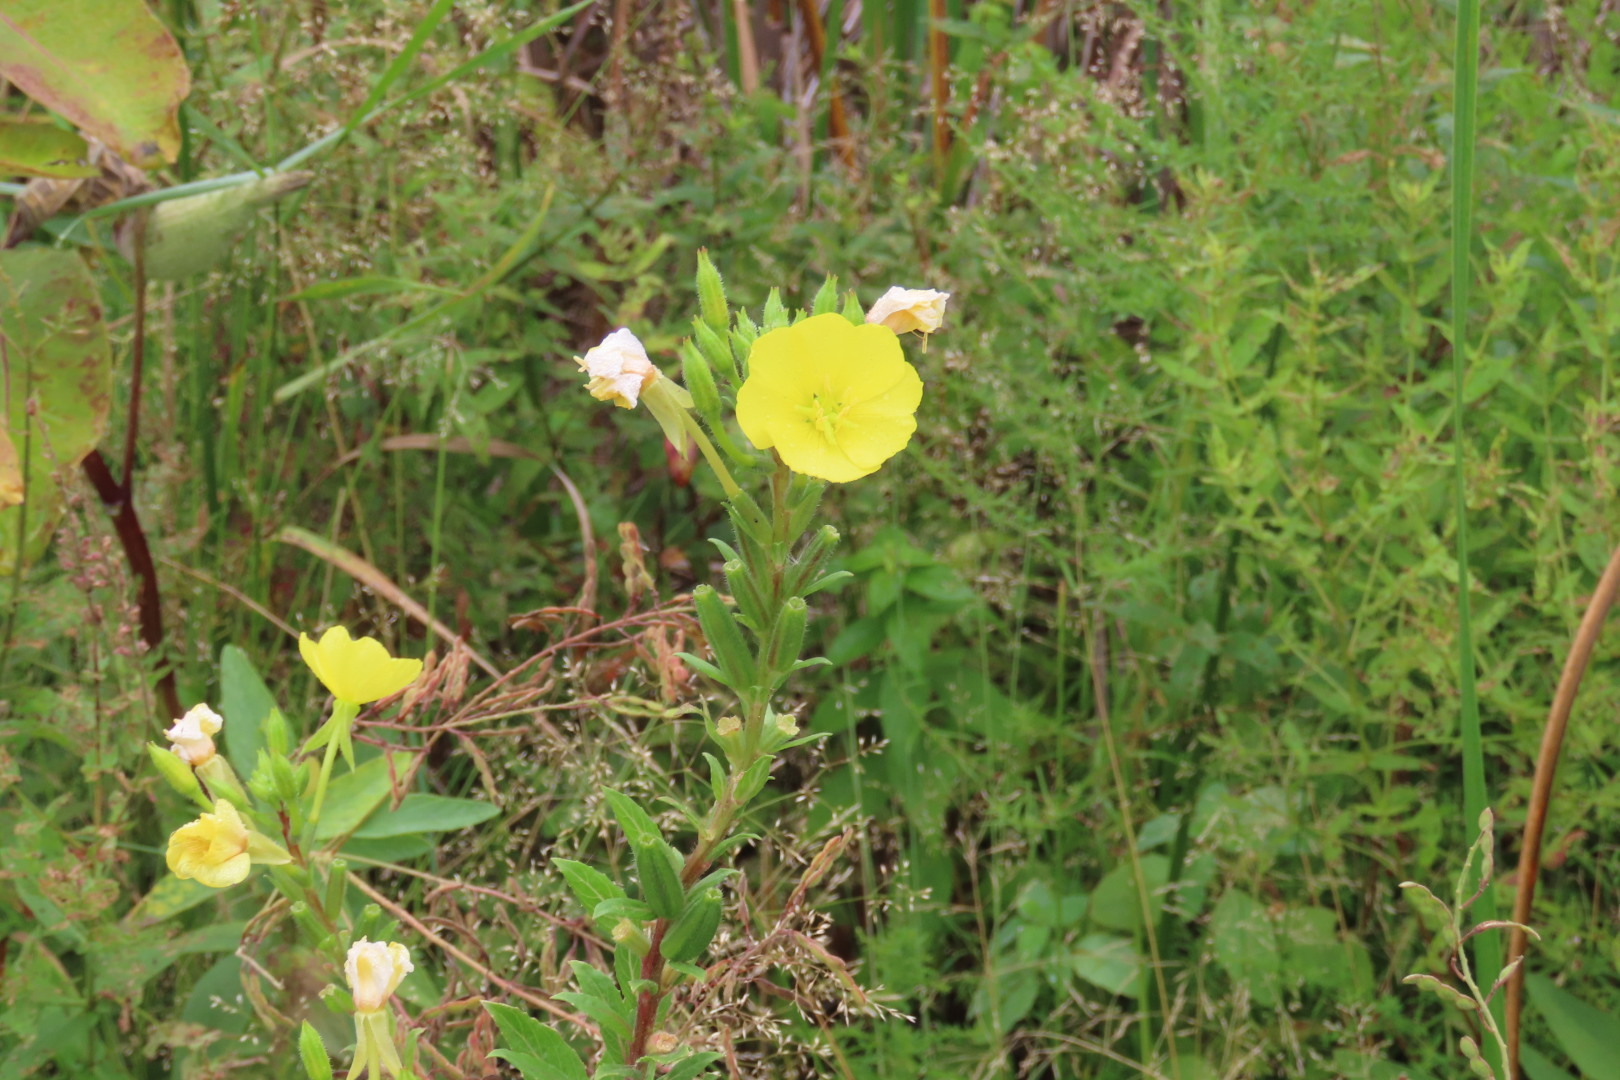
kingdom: Plantae
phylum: Tracheophyta
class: Magnoliopsida
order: Myrtales
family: Onagraceae
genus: Oenothera
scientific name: Oenothera biennis
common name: Common evening-primrose
